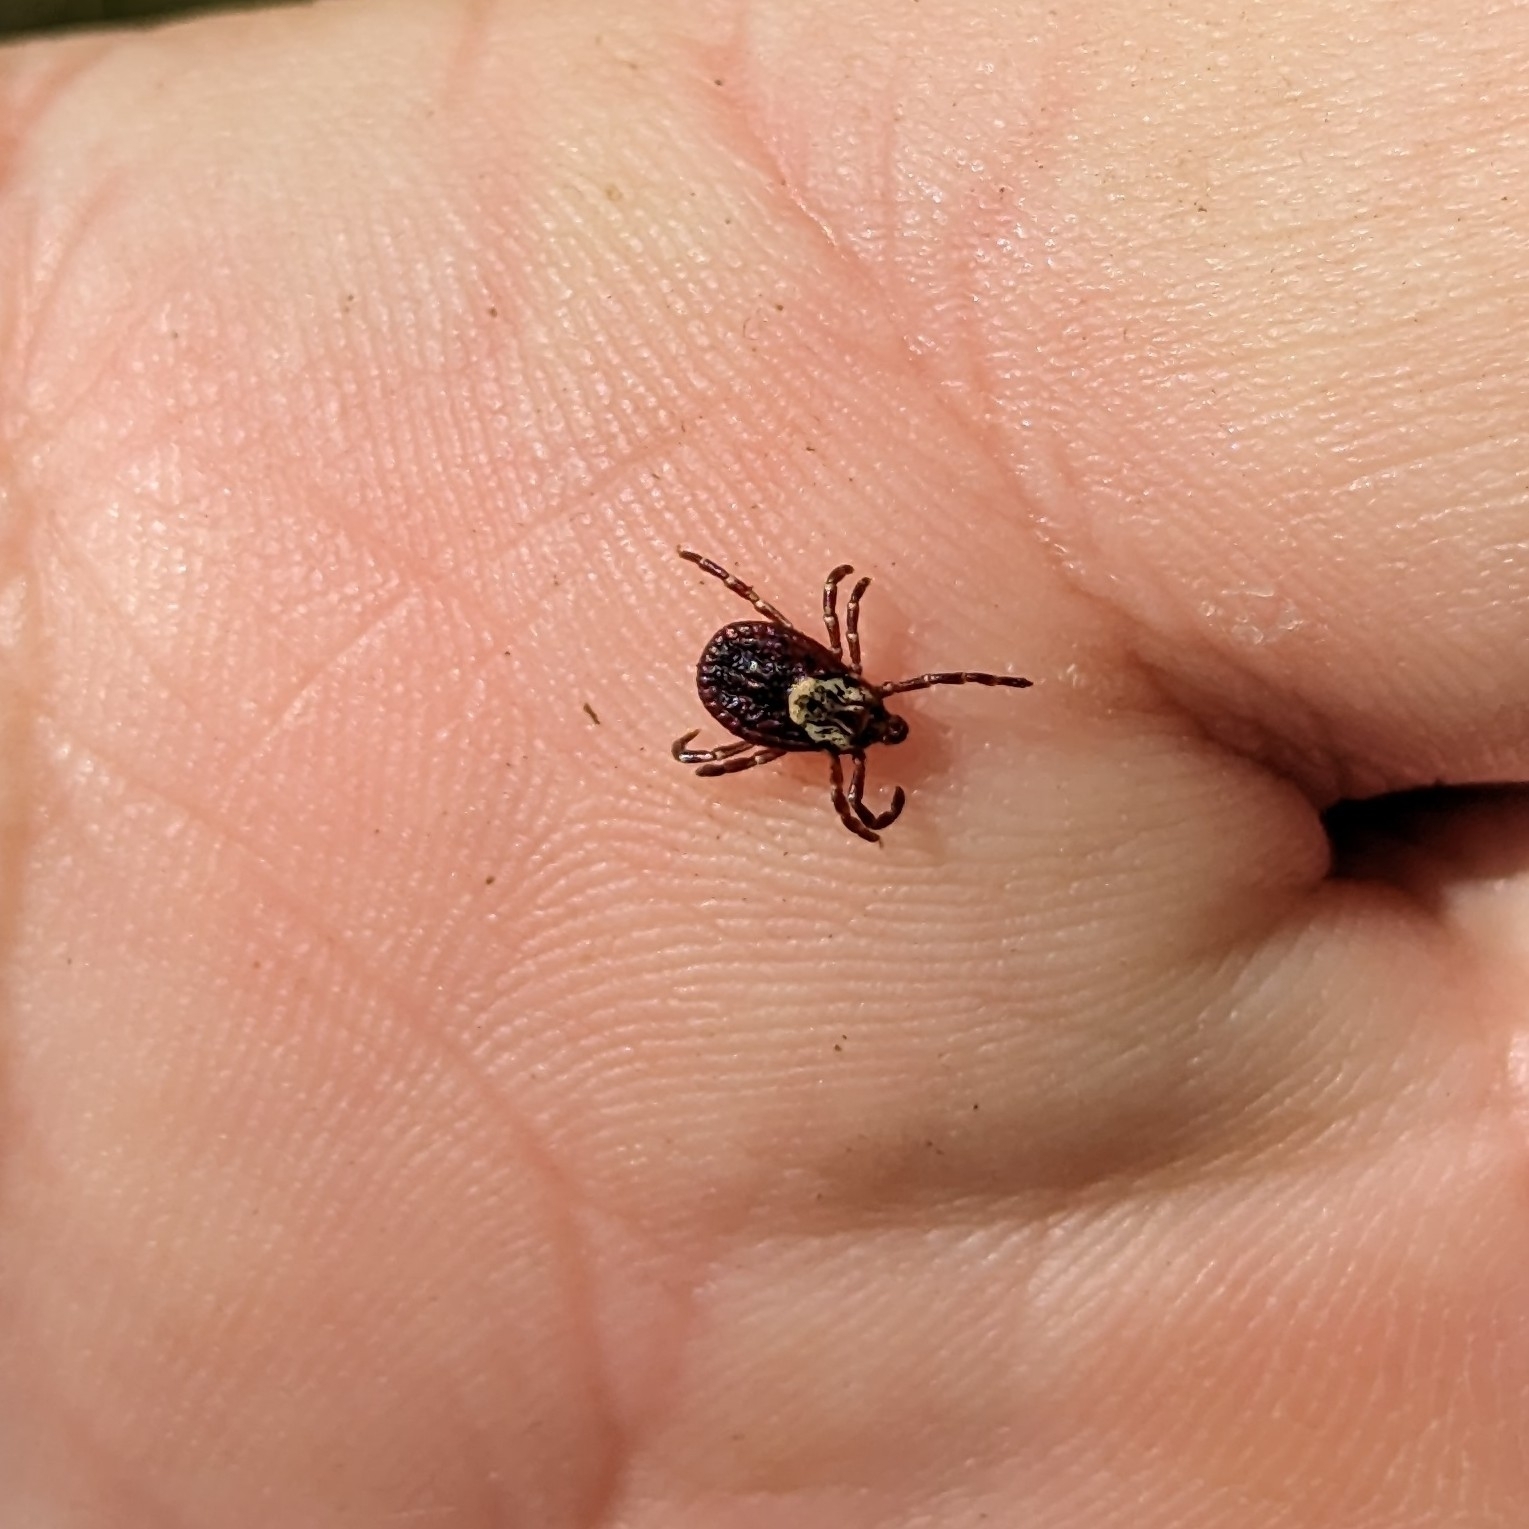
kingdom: Animalia
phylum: Arthropoda
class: Arachnida
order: Ixodida
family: Ixodidae
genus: Dermacentor
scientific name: Dermacentor variabilis
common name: American dog tick
